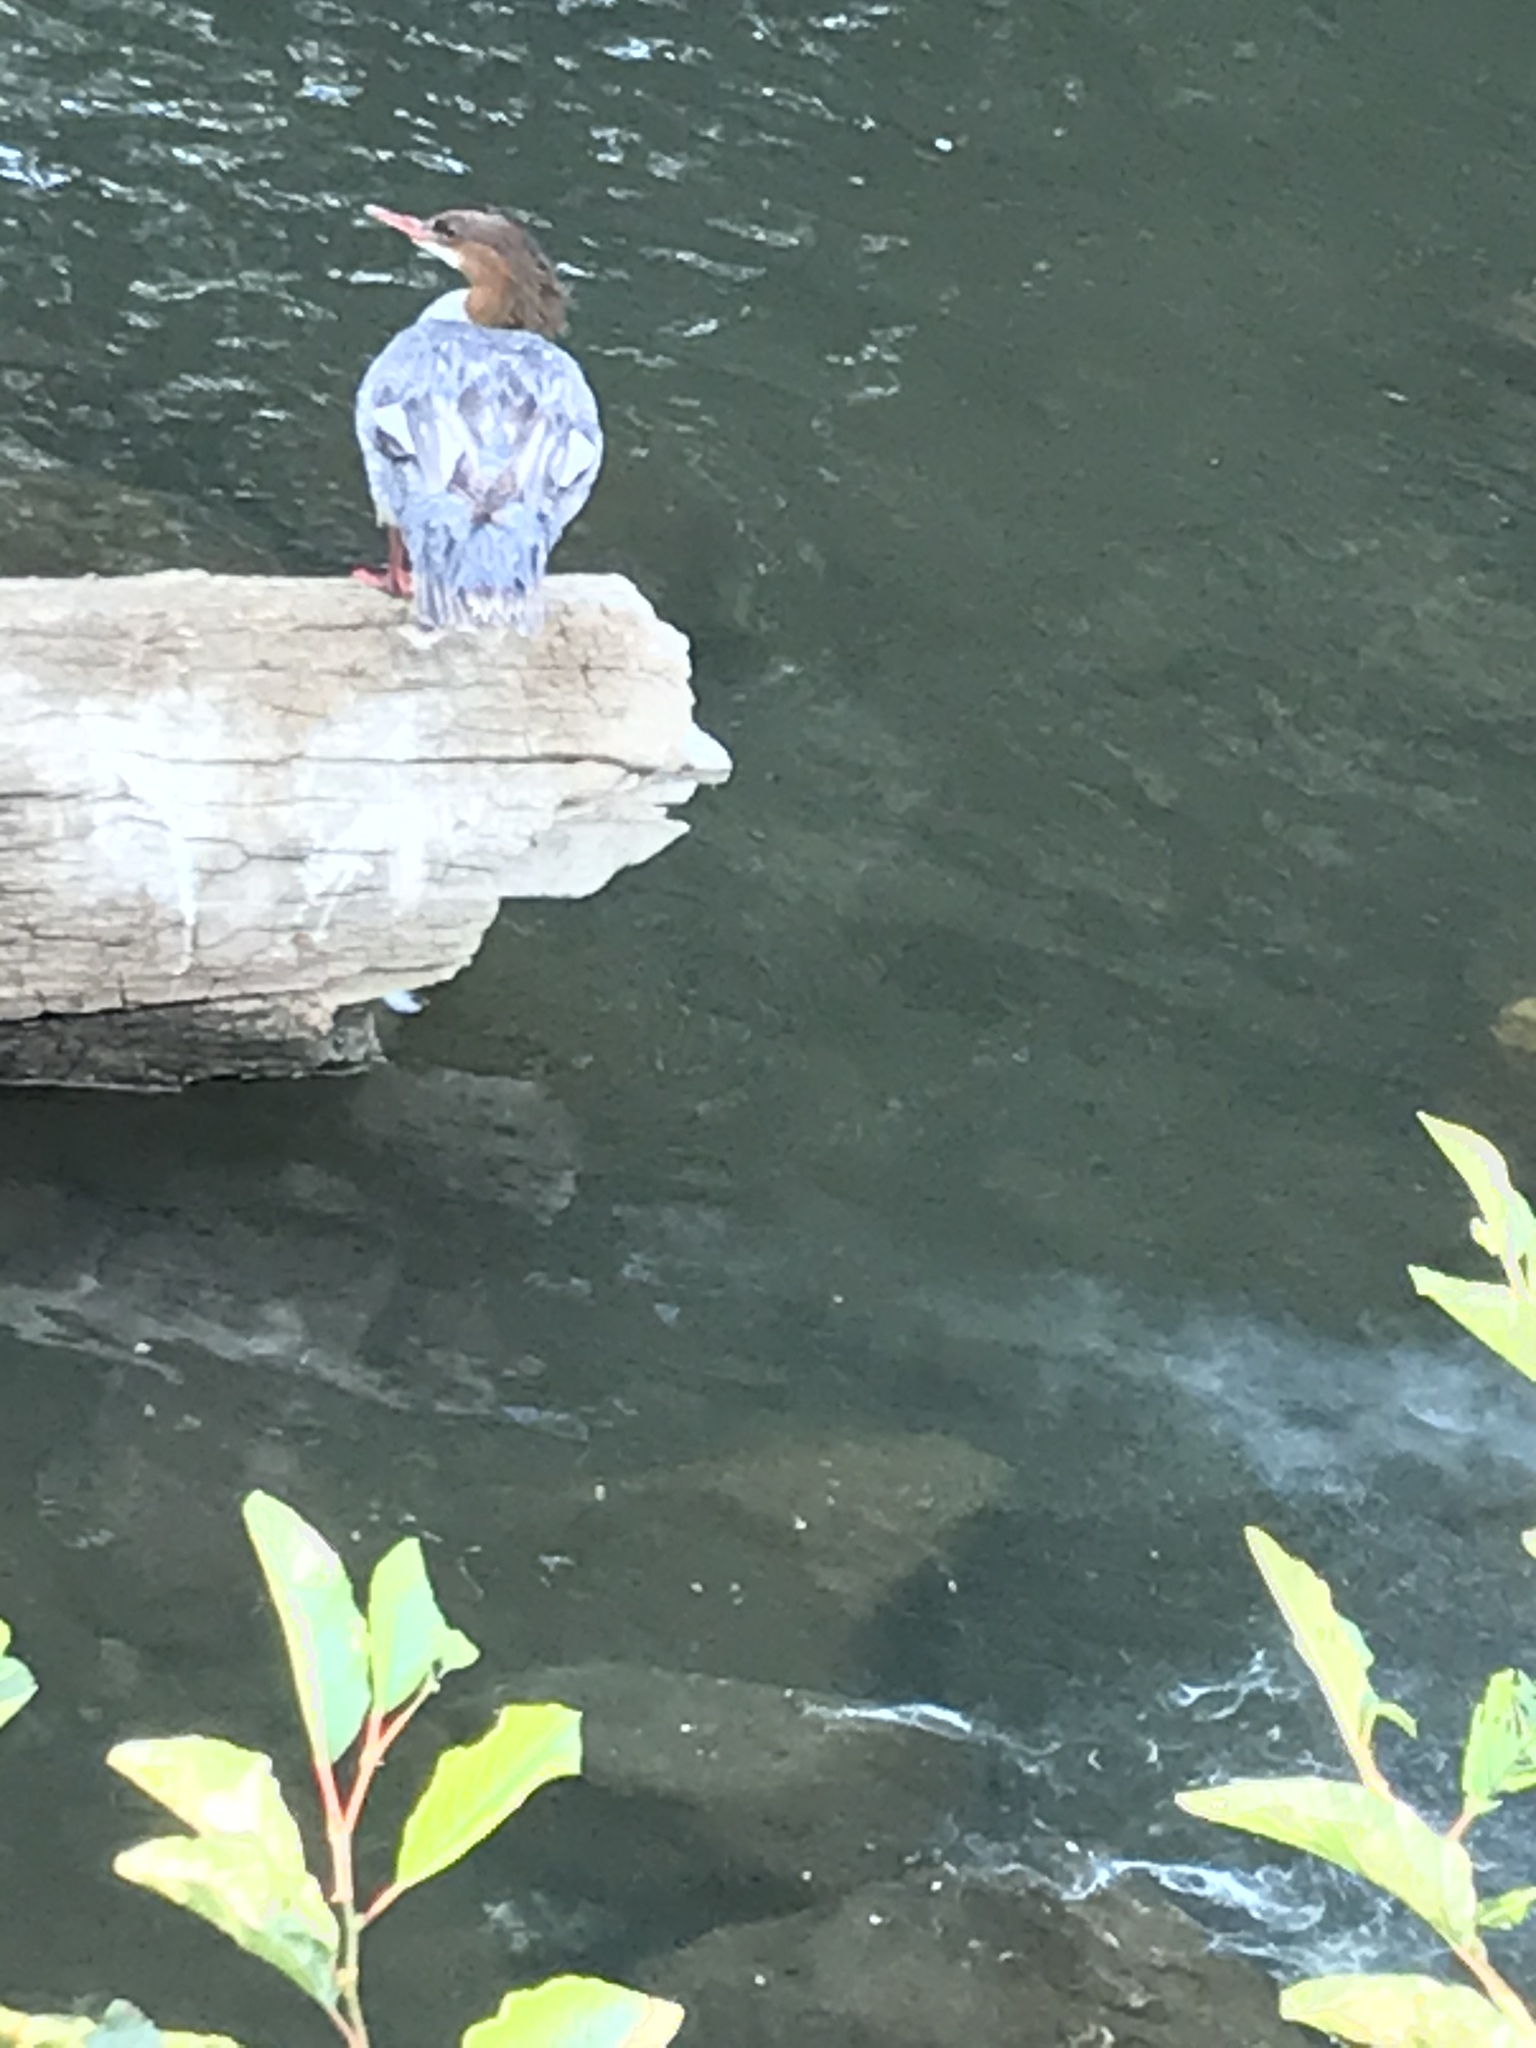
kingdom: Animalia
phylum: Chordata
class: Aves
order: Anseriformes
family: Anatidae
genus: Mergus
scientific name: Mergus merganser
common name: Common merganser
